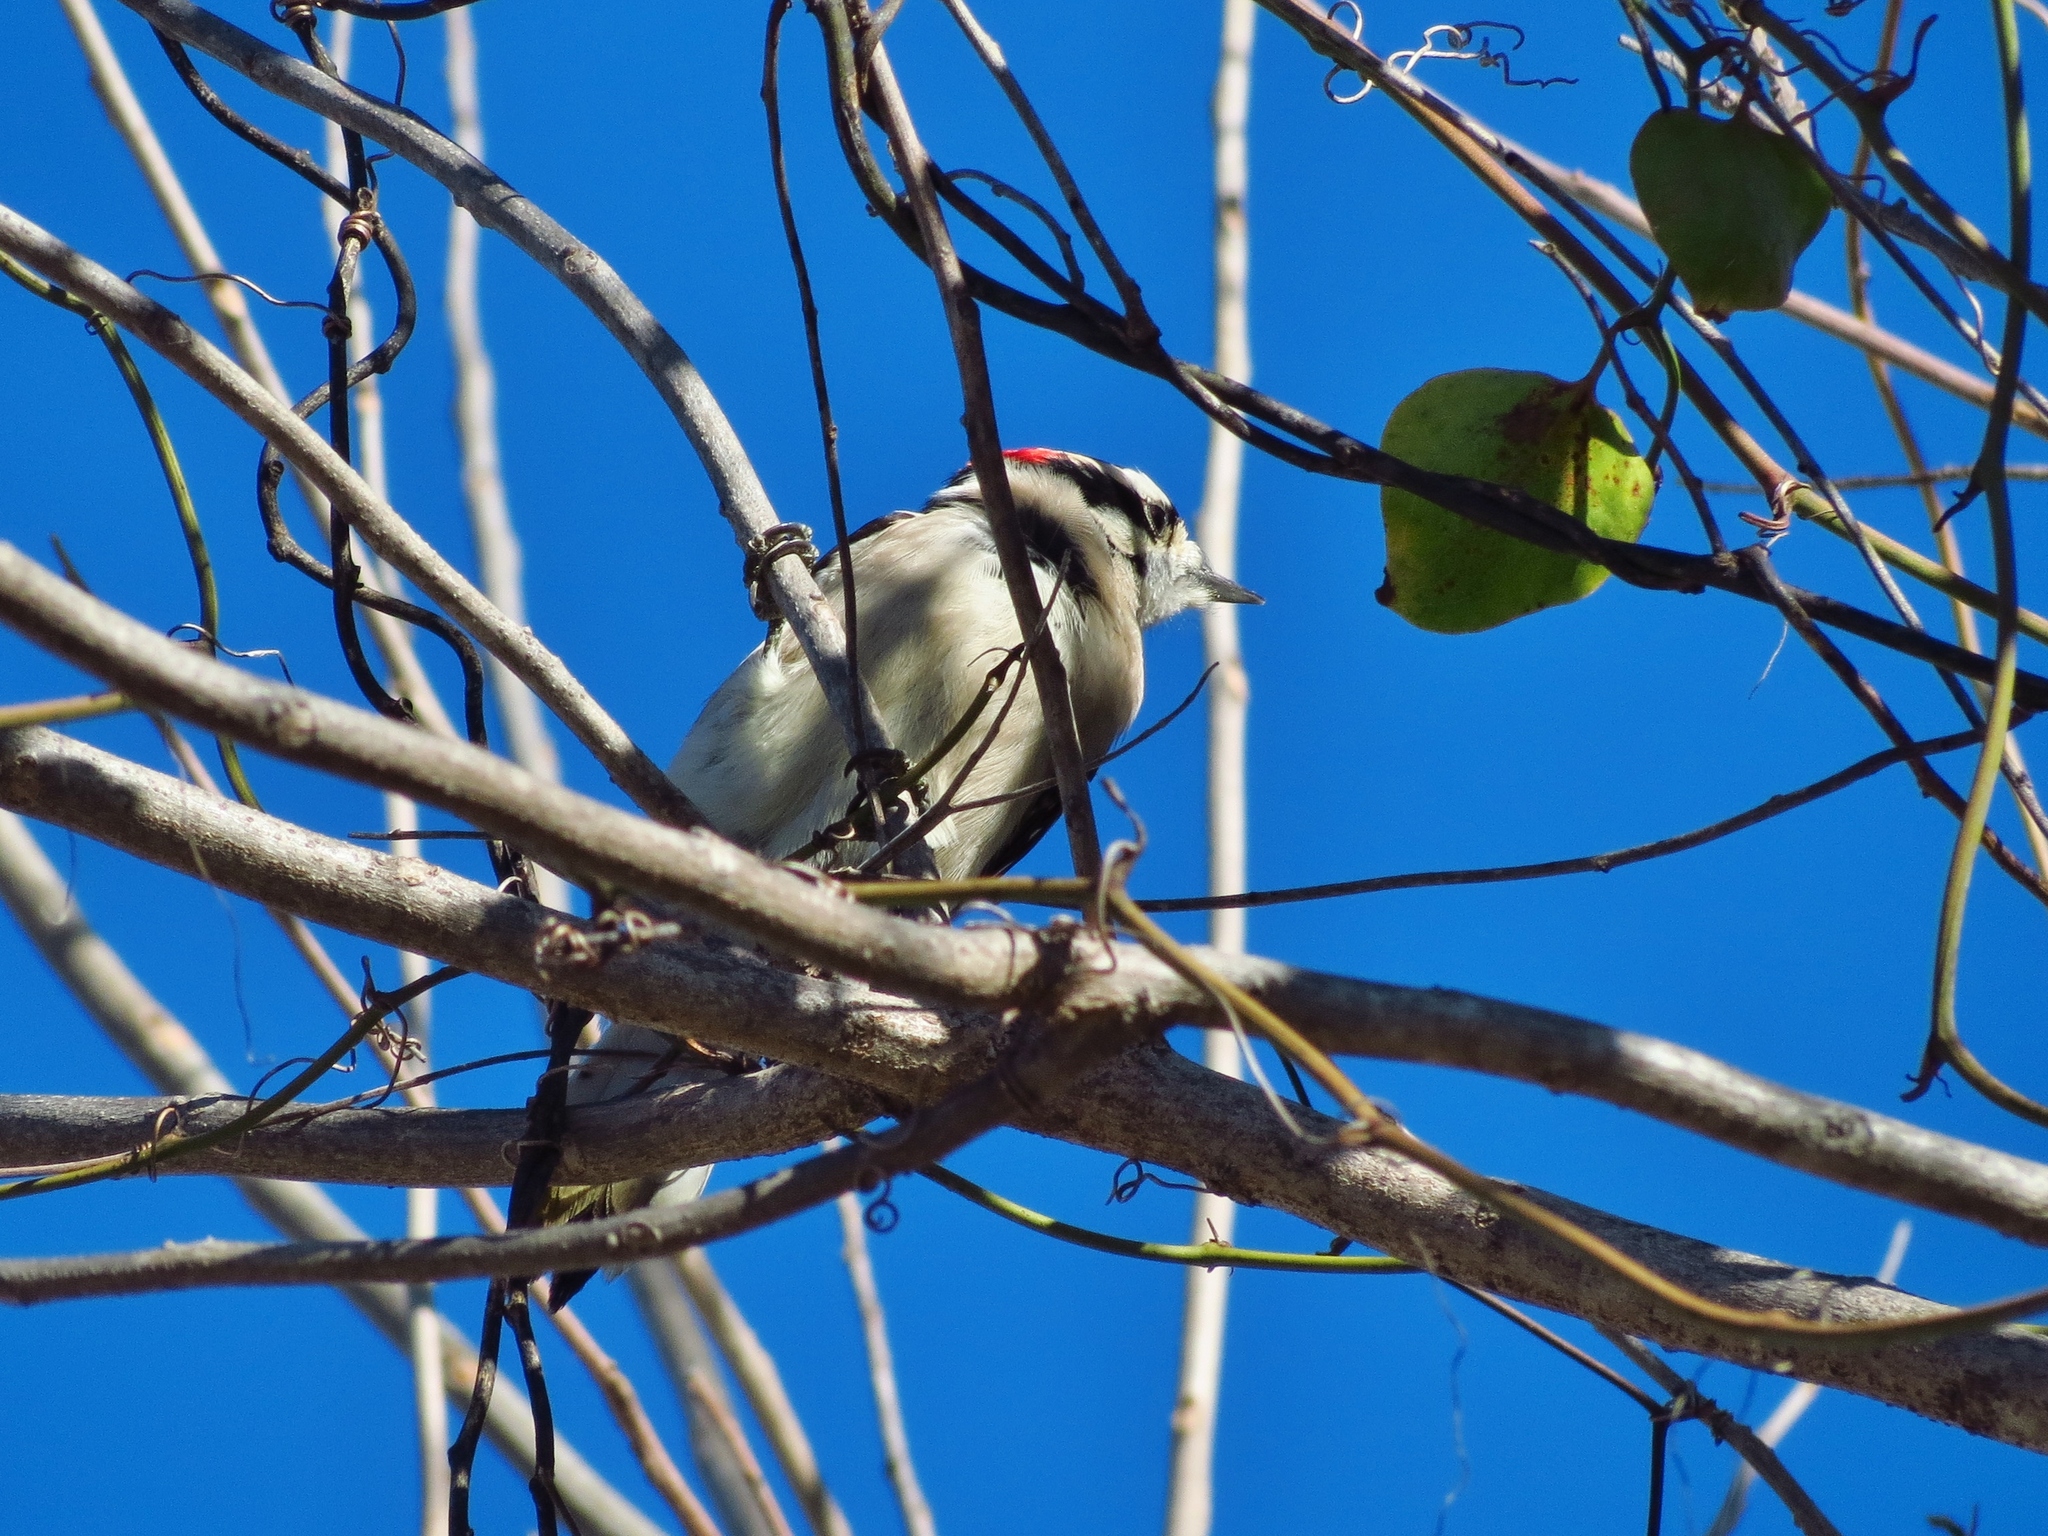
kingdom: Animalia
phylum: Chordata
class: Aves
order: Piciformes
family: Picidae
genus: Dryobates
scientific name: Dryobates pubescens
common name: Downy woodpecker
